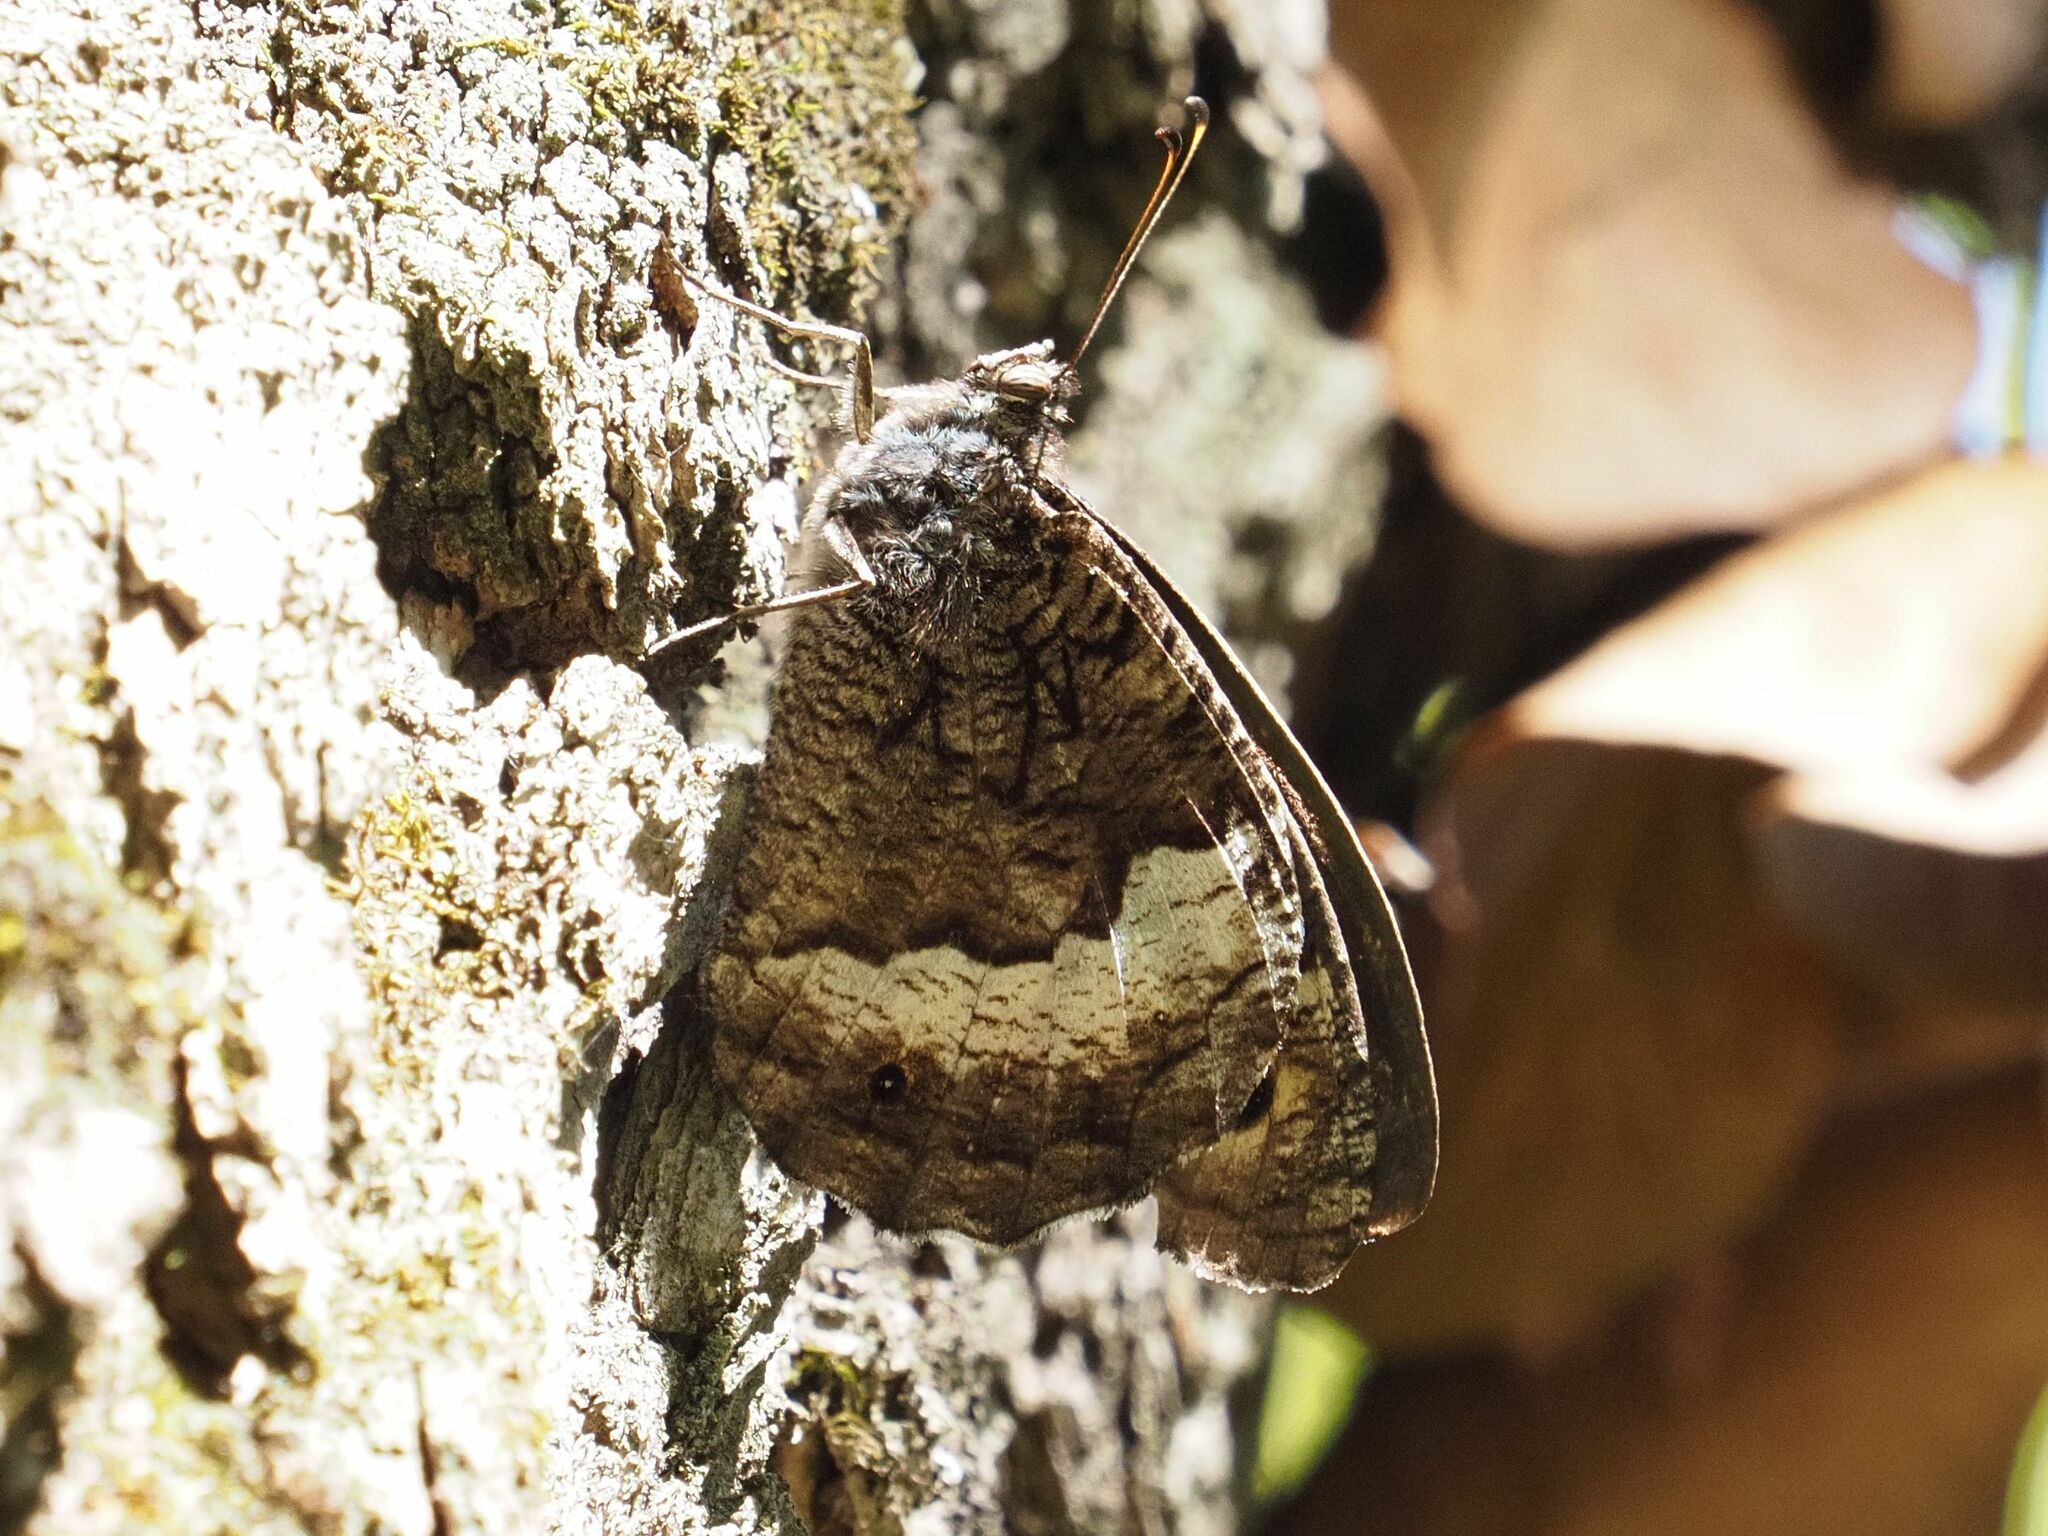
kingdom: Animalia
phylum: Arthropoda
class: Insecta
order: Lepidoptera
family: Nymphalidae
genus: Hipparchia
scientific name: Hipparchia fagi
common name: Woodland grayling
